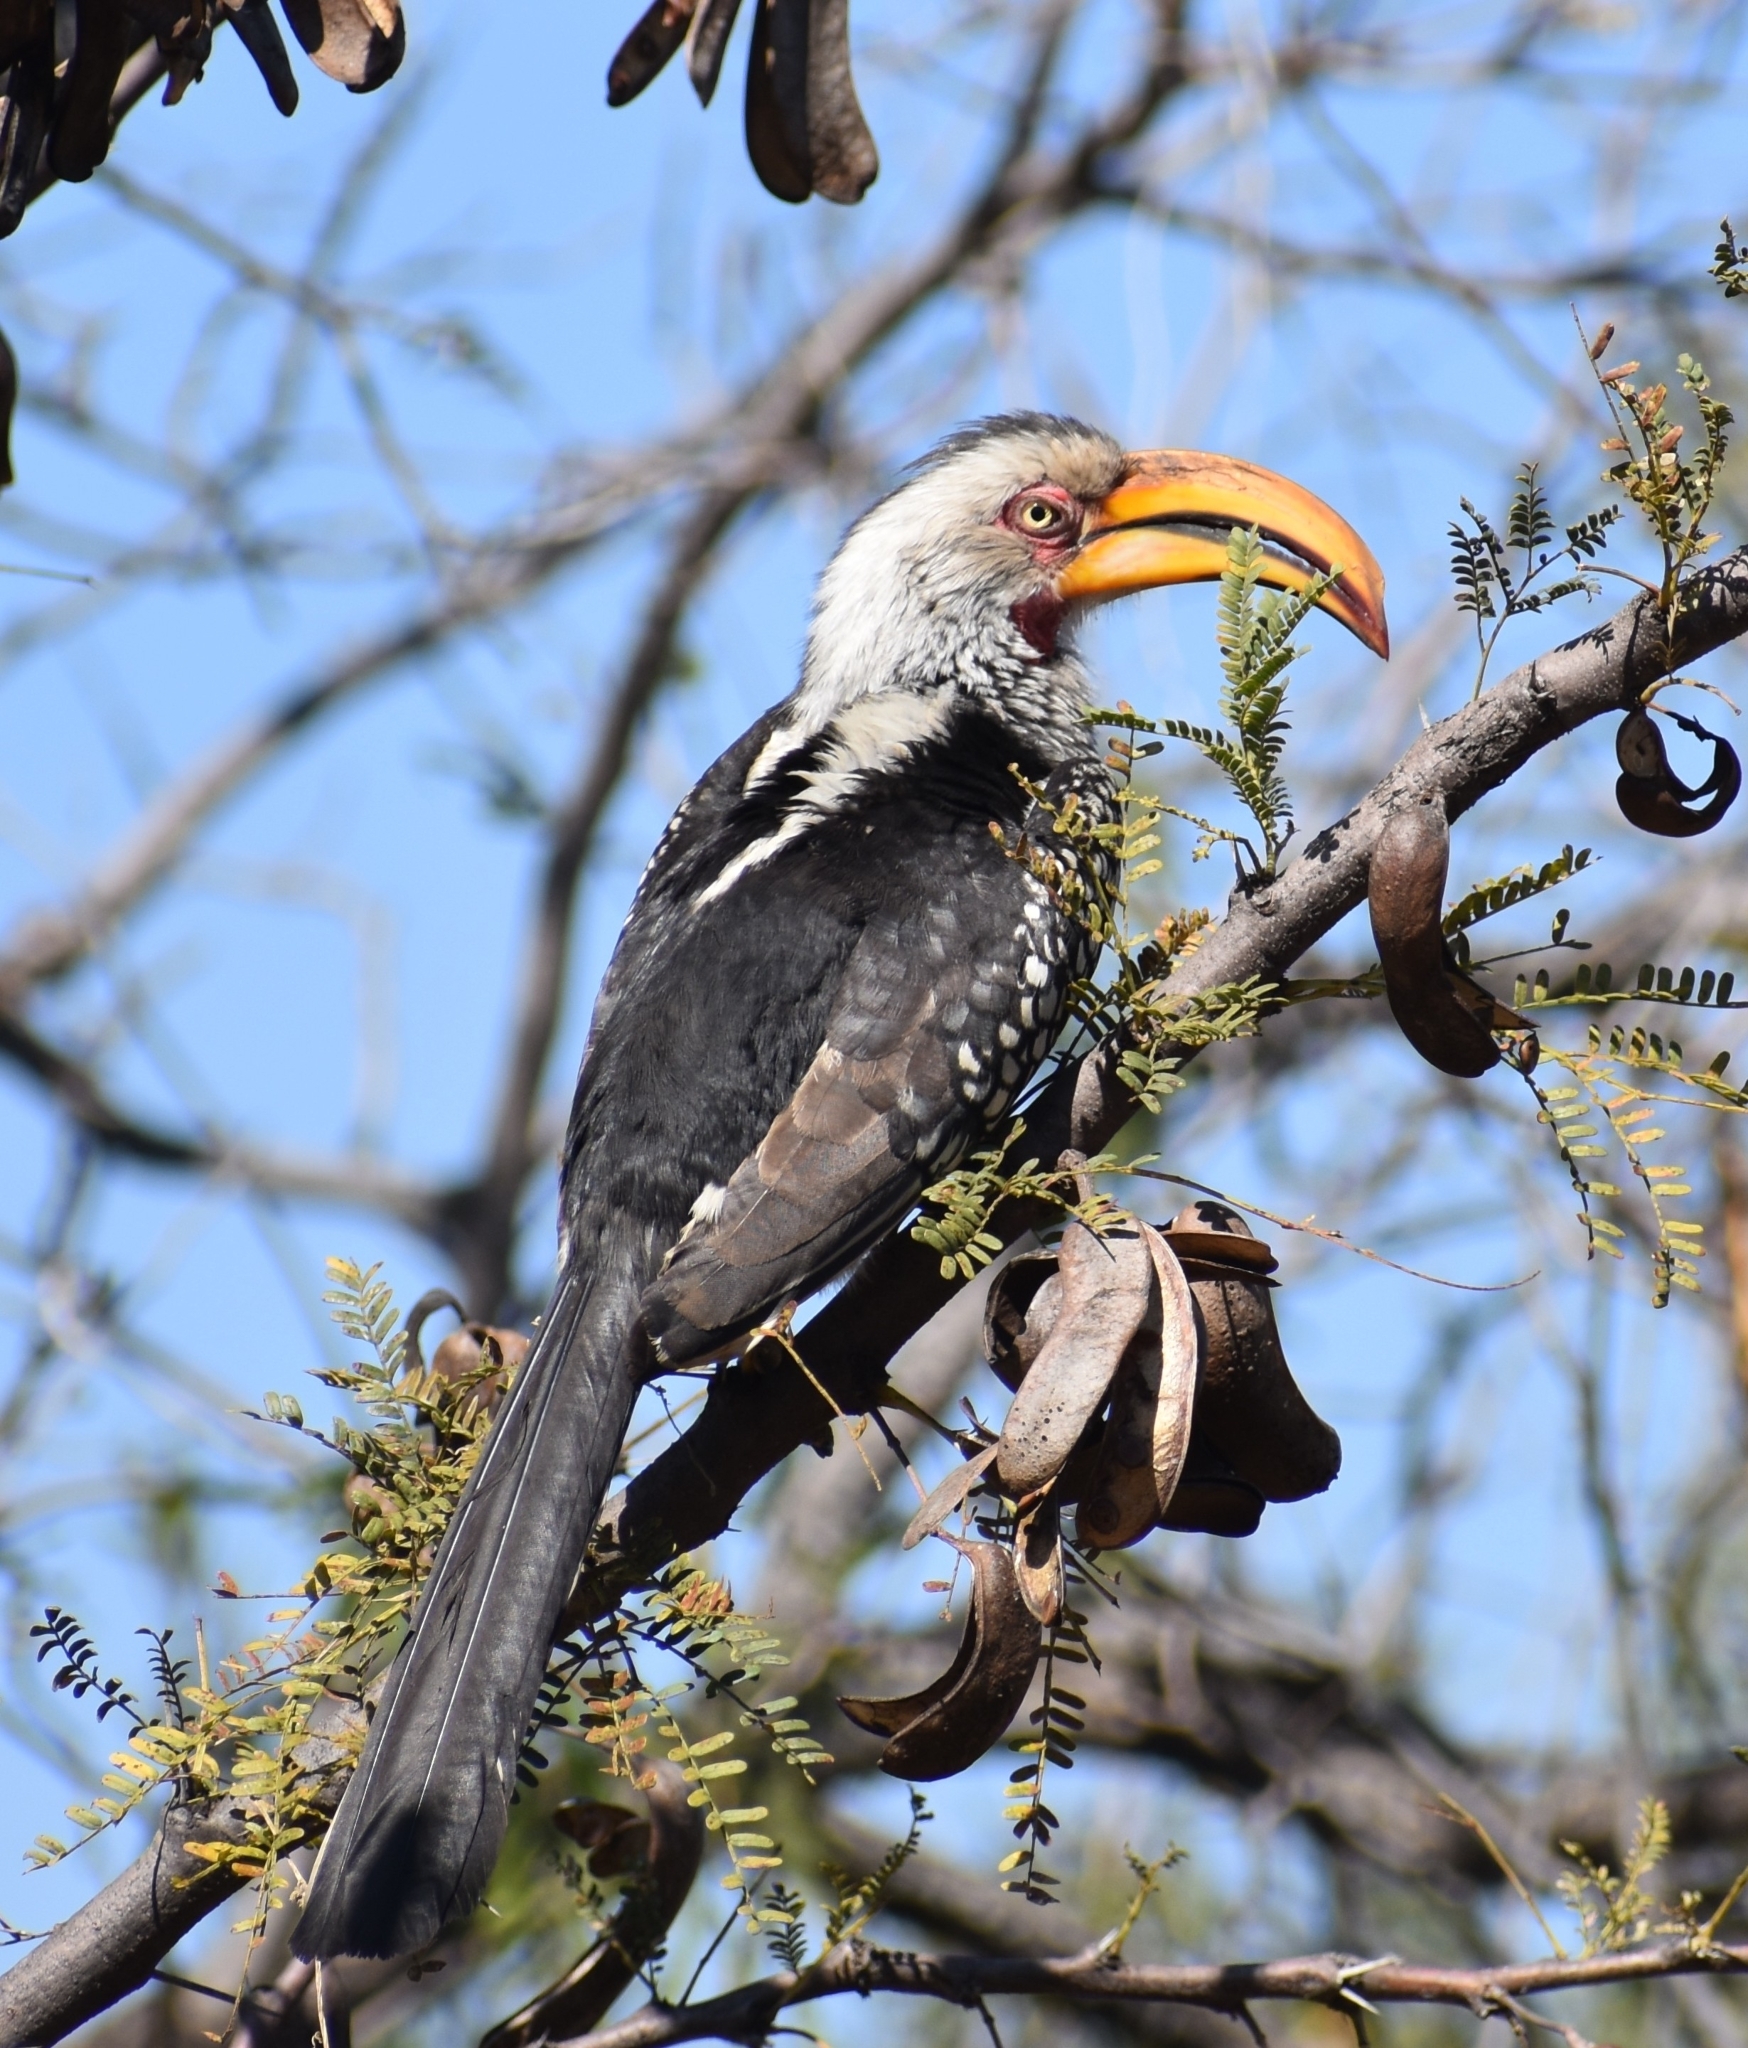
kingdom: Animalia
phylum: Chordata
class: Aves
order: Bucerotiformes
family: Bucerotidae
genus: Tockus
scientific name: Tockus leucomelas
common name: Southern yellow-billed hornbill
